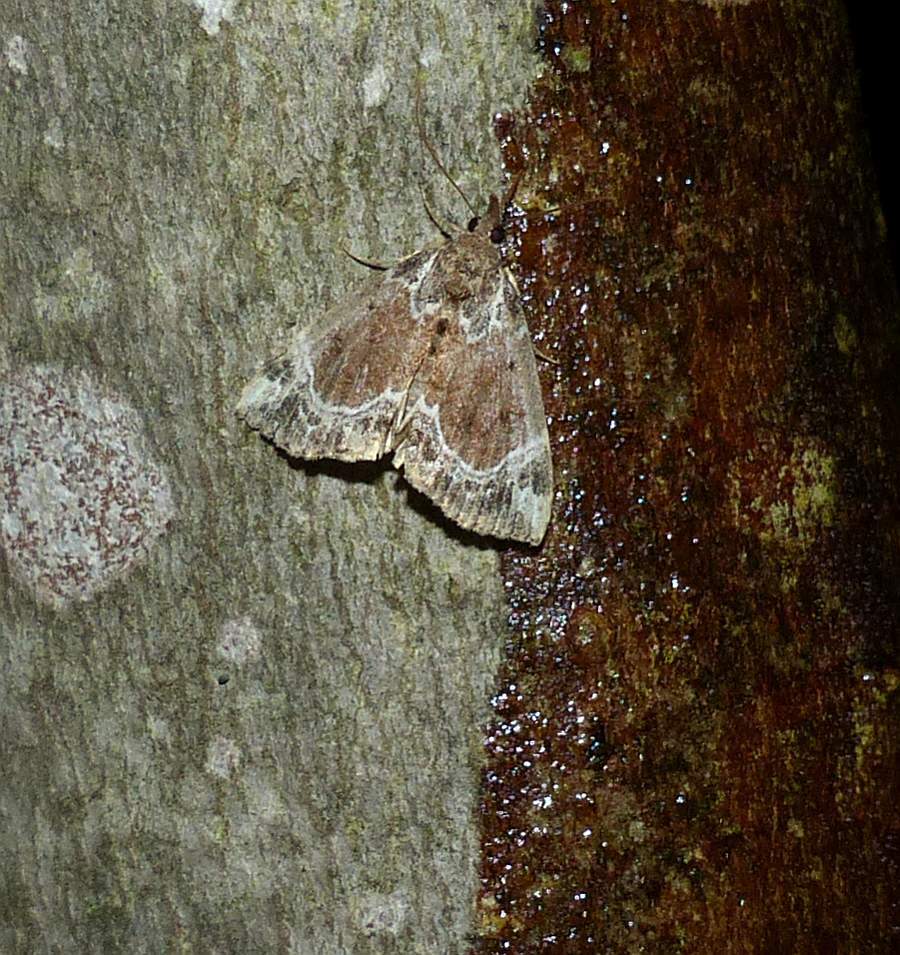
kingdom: Animalia
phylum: Arthropoda
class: Insecta
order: Lepidoptera
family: Erebidae
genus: Hypena
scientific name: Hypena abalienalis
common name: White-lined snout
